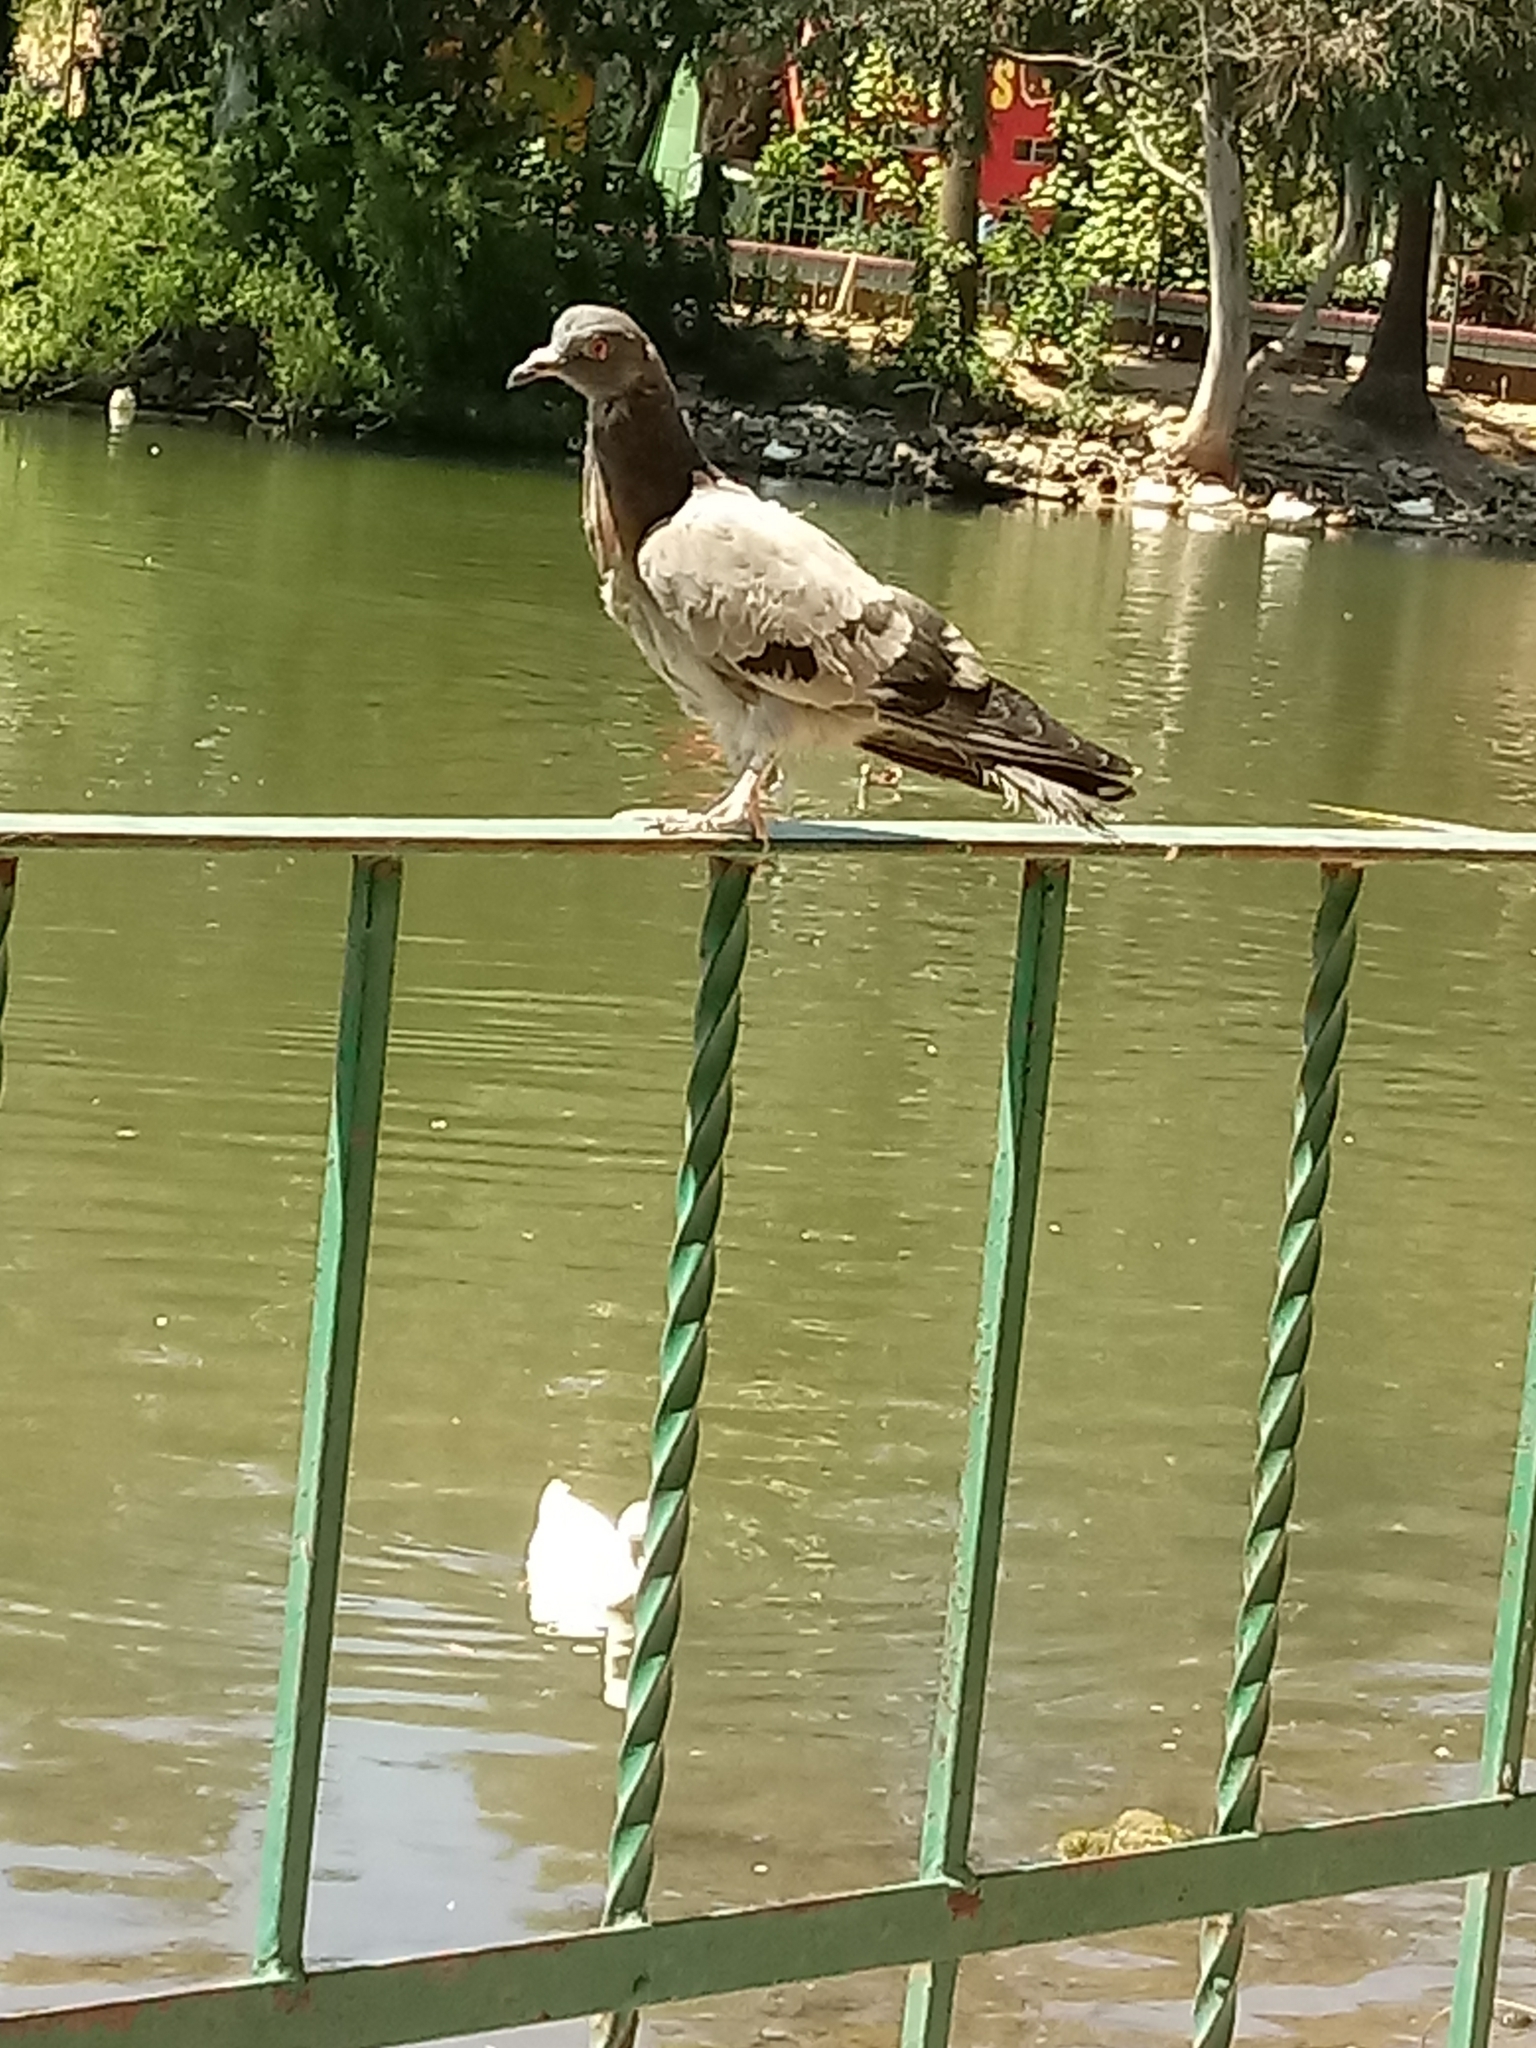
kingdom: Animalia
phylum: Chordata
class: Aves
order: Columbiformes
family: Columbidae
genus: Columba
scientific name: Columba livia
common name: Rock pigeon
